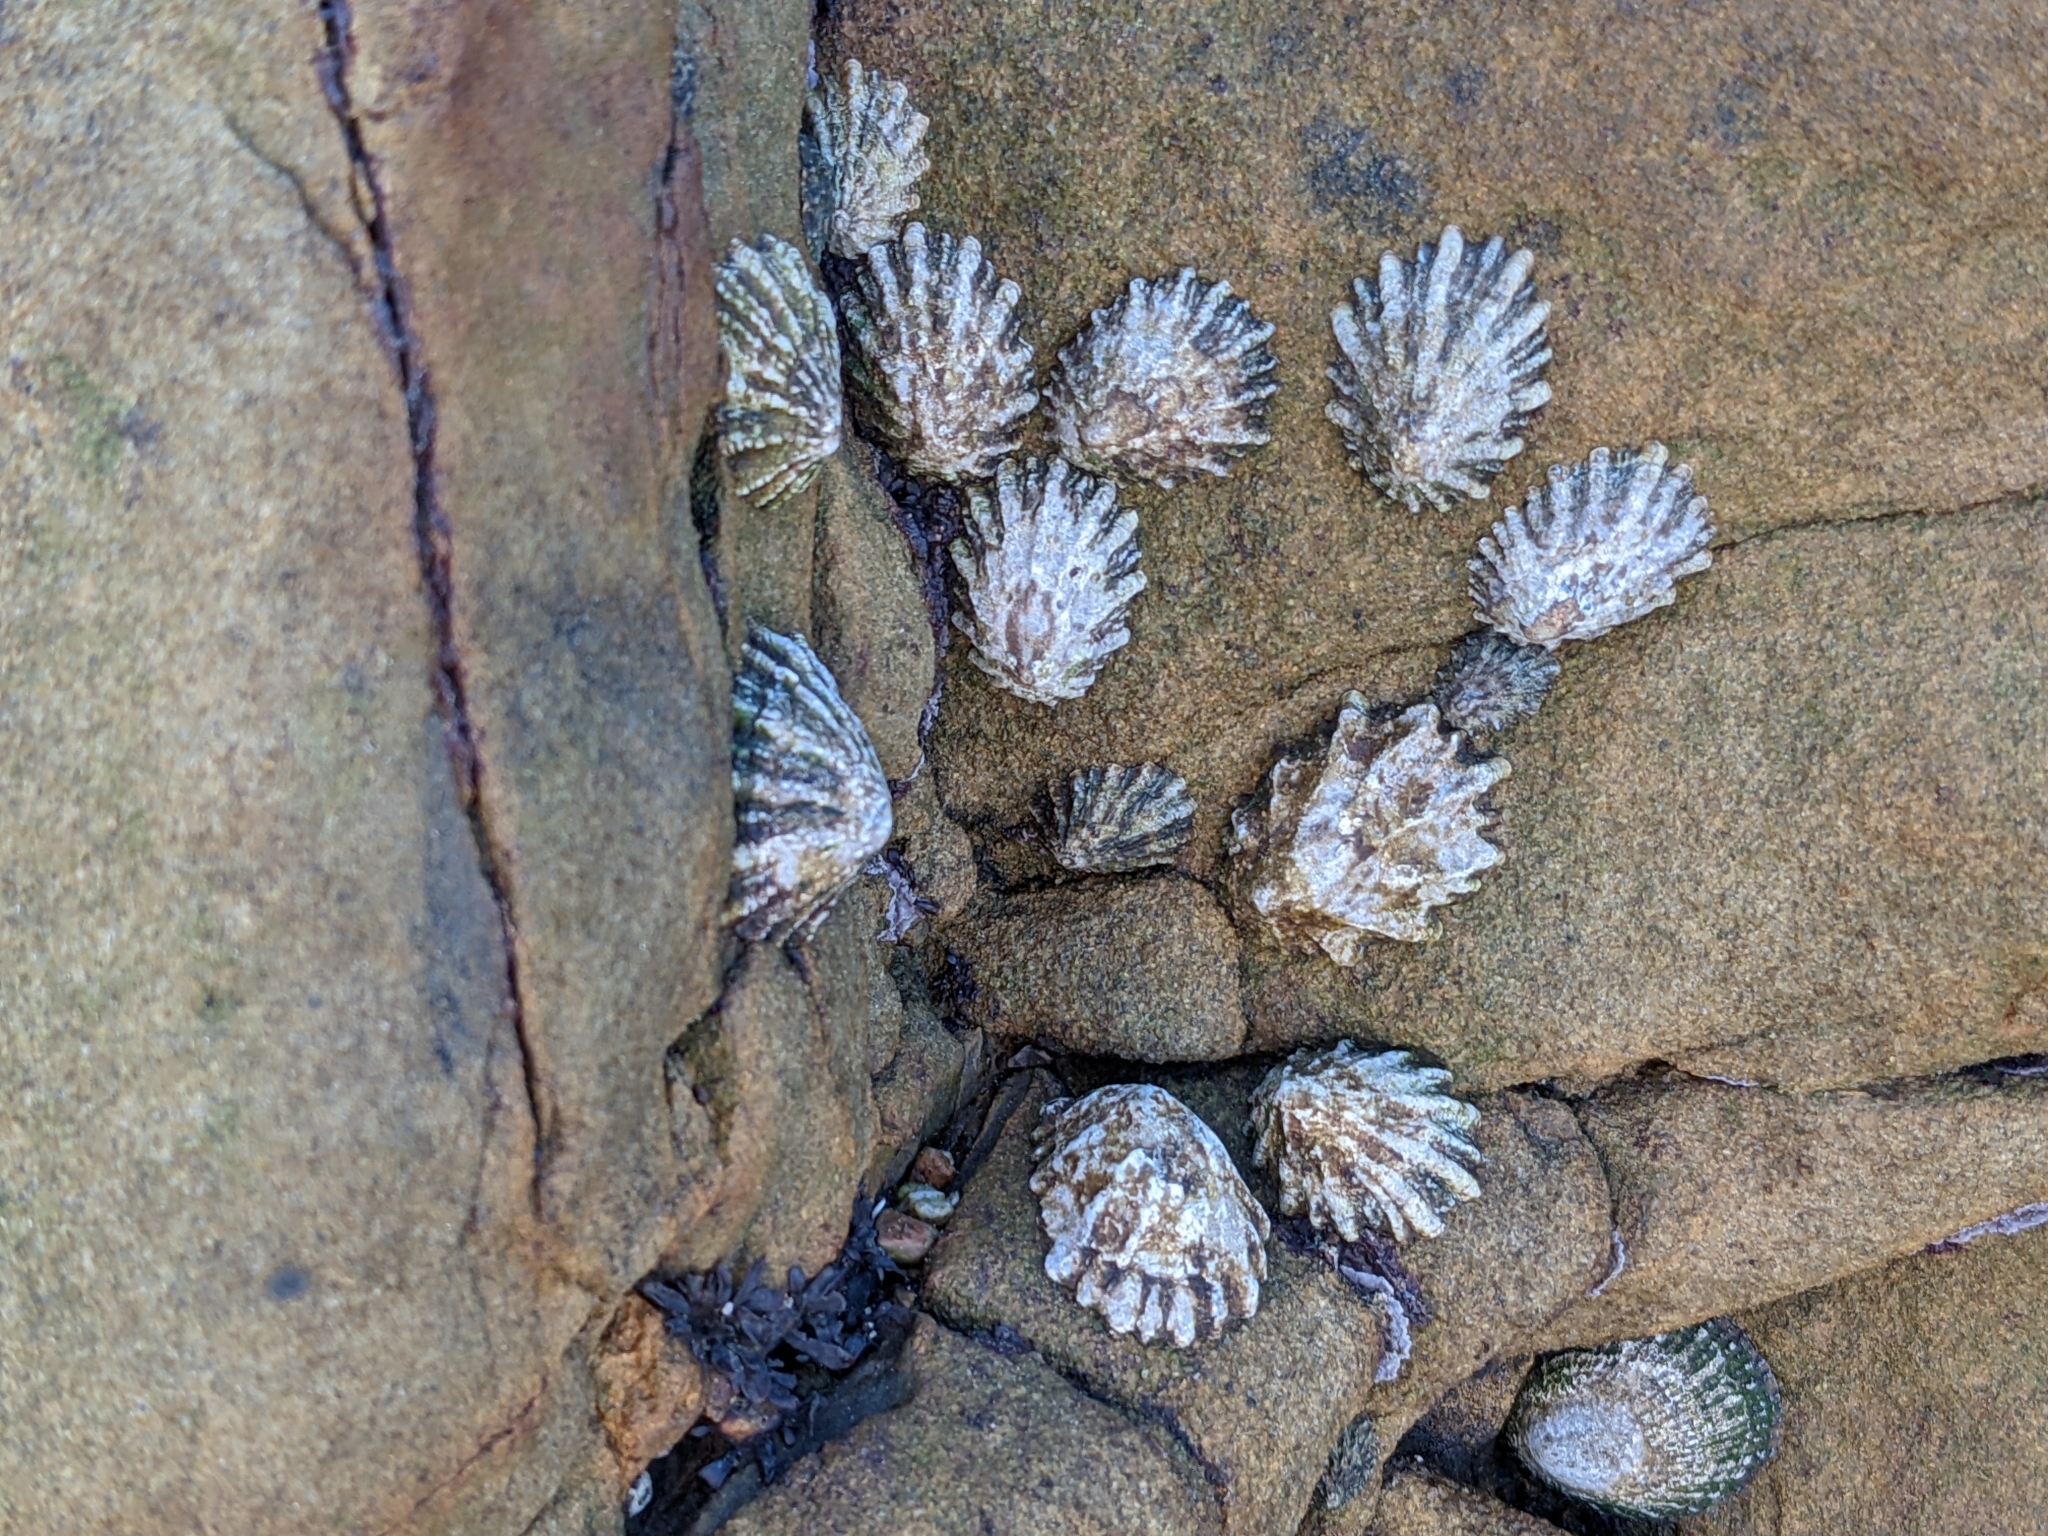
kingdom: Animalia
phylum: Mollusca
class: Gastropoda
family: Lottiidae
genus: Lottia
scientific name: Lottia scabra
